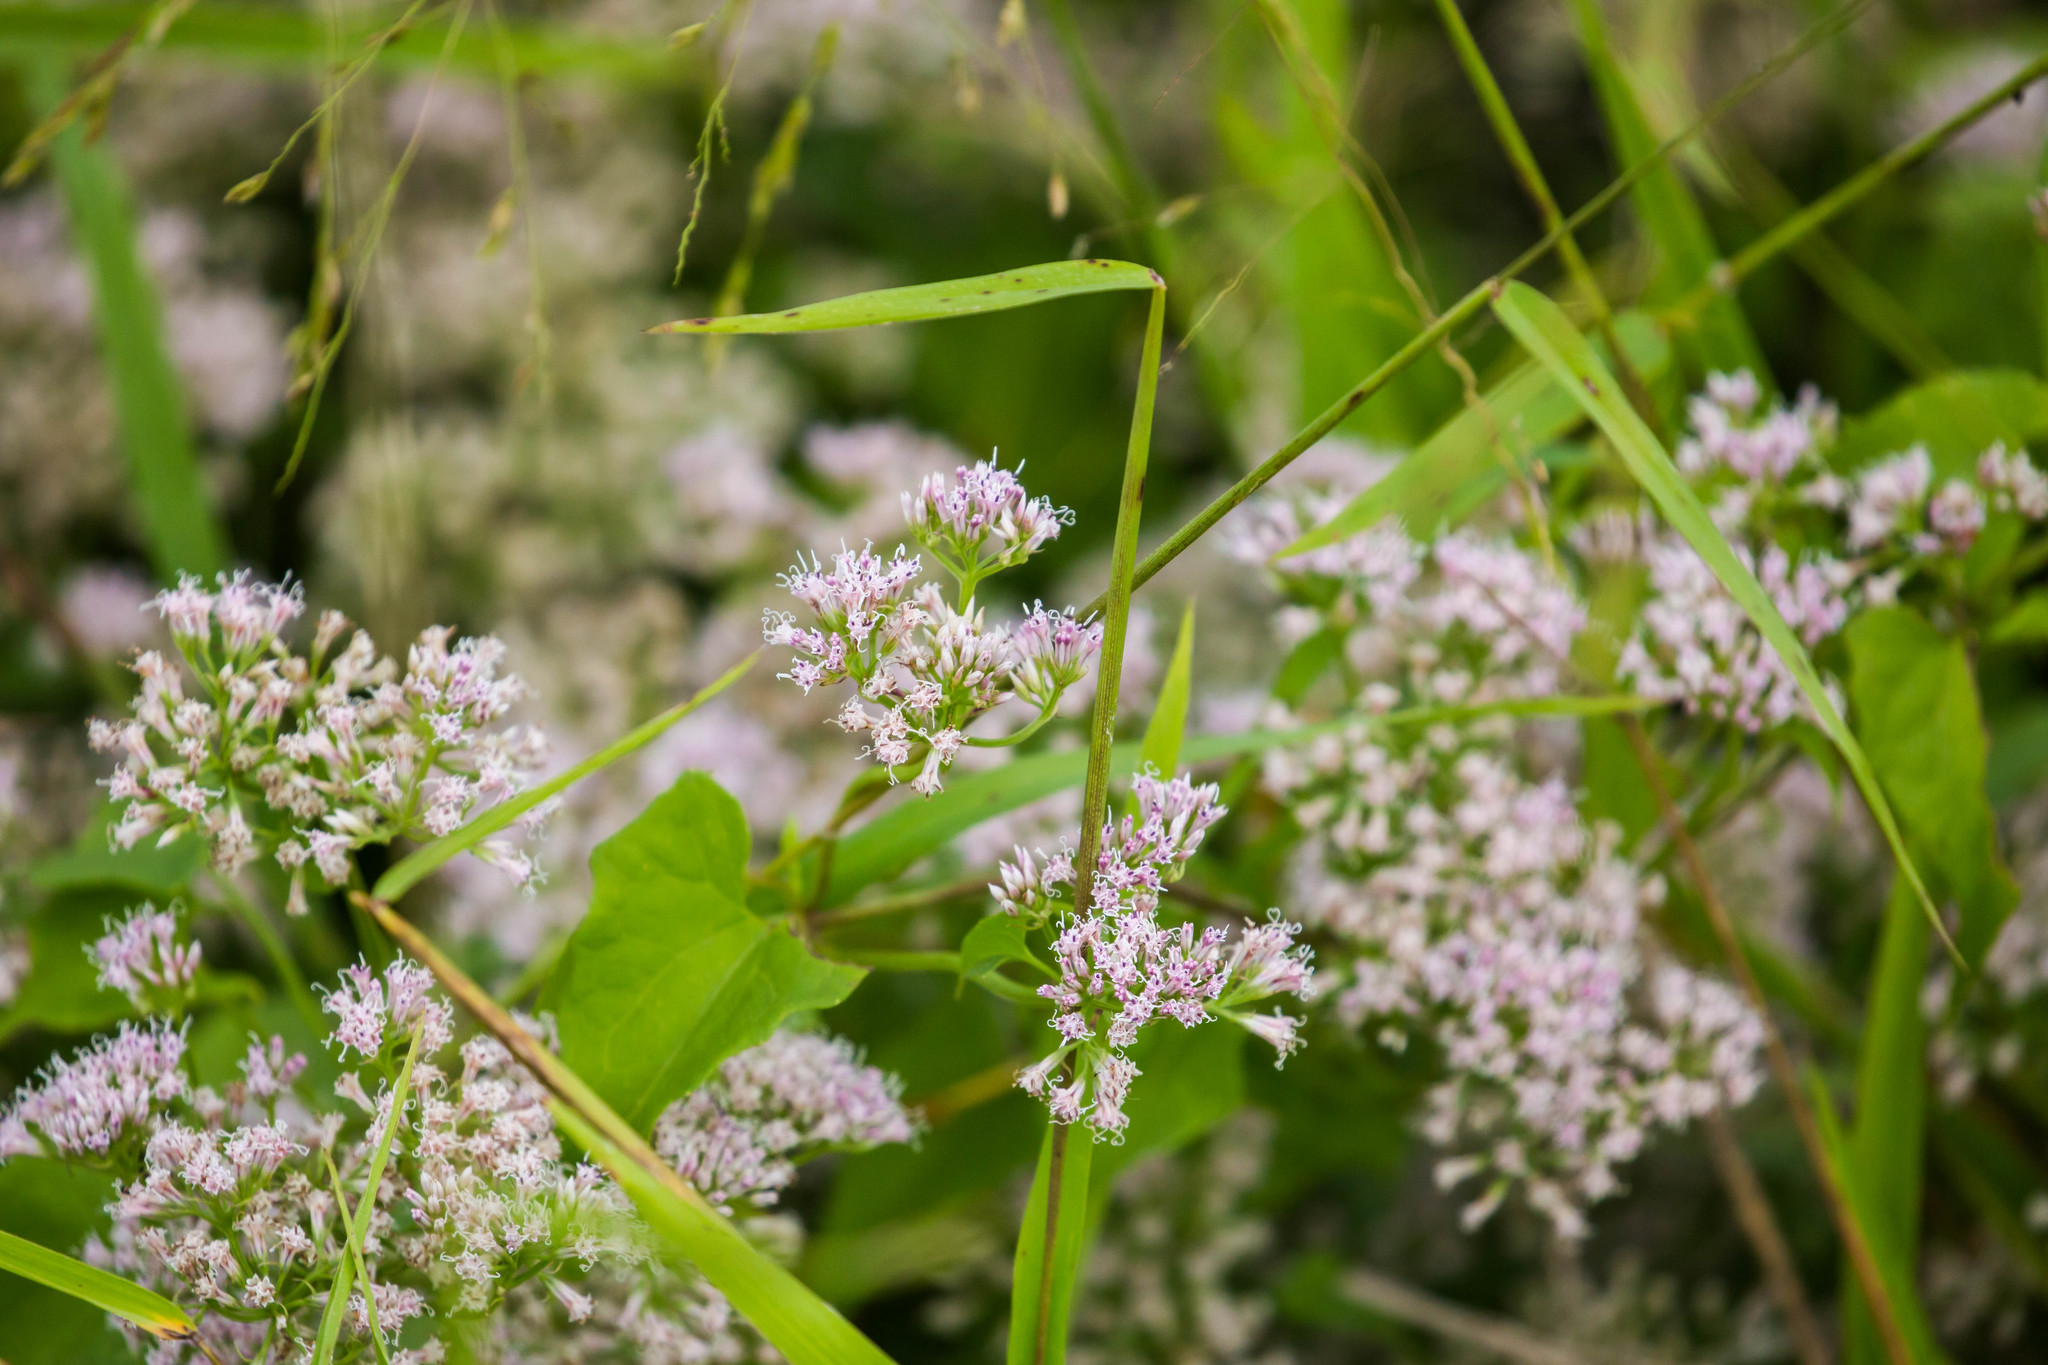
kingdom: Plantae
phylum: Tracheophyta
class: Magnoliopsida
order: Asterales
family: Asteraceae
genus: Mikania
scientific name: Mikania scandens
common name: Climbing hempvine
